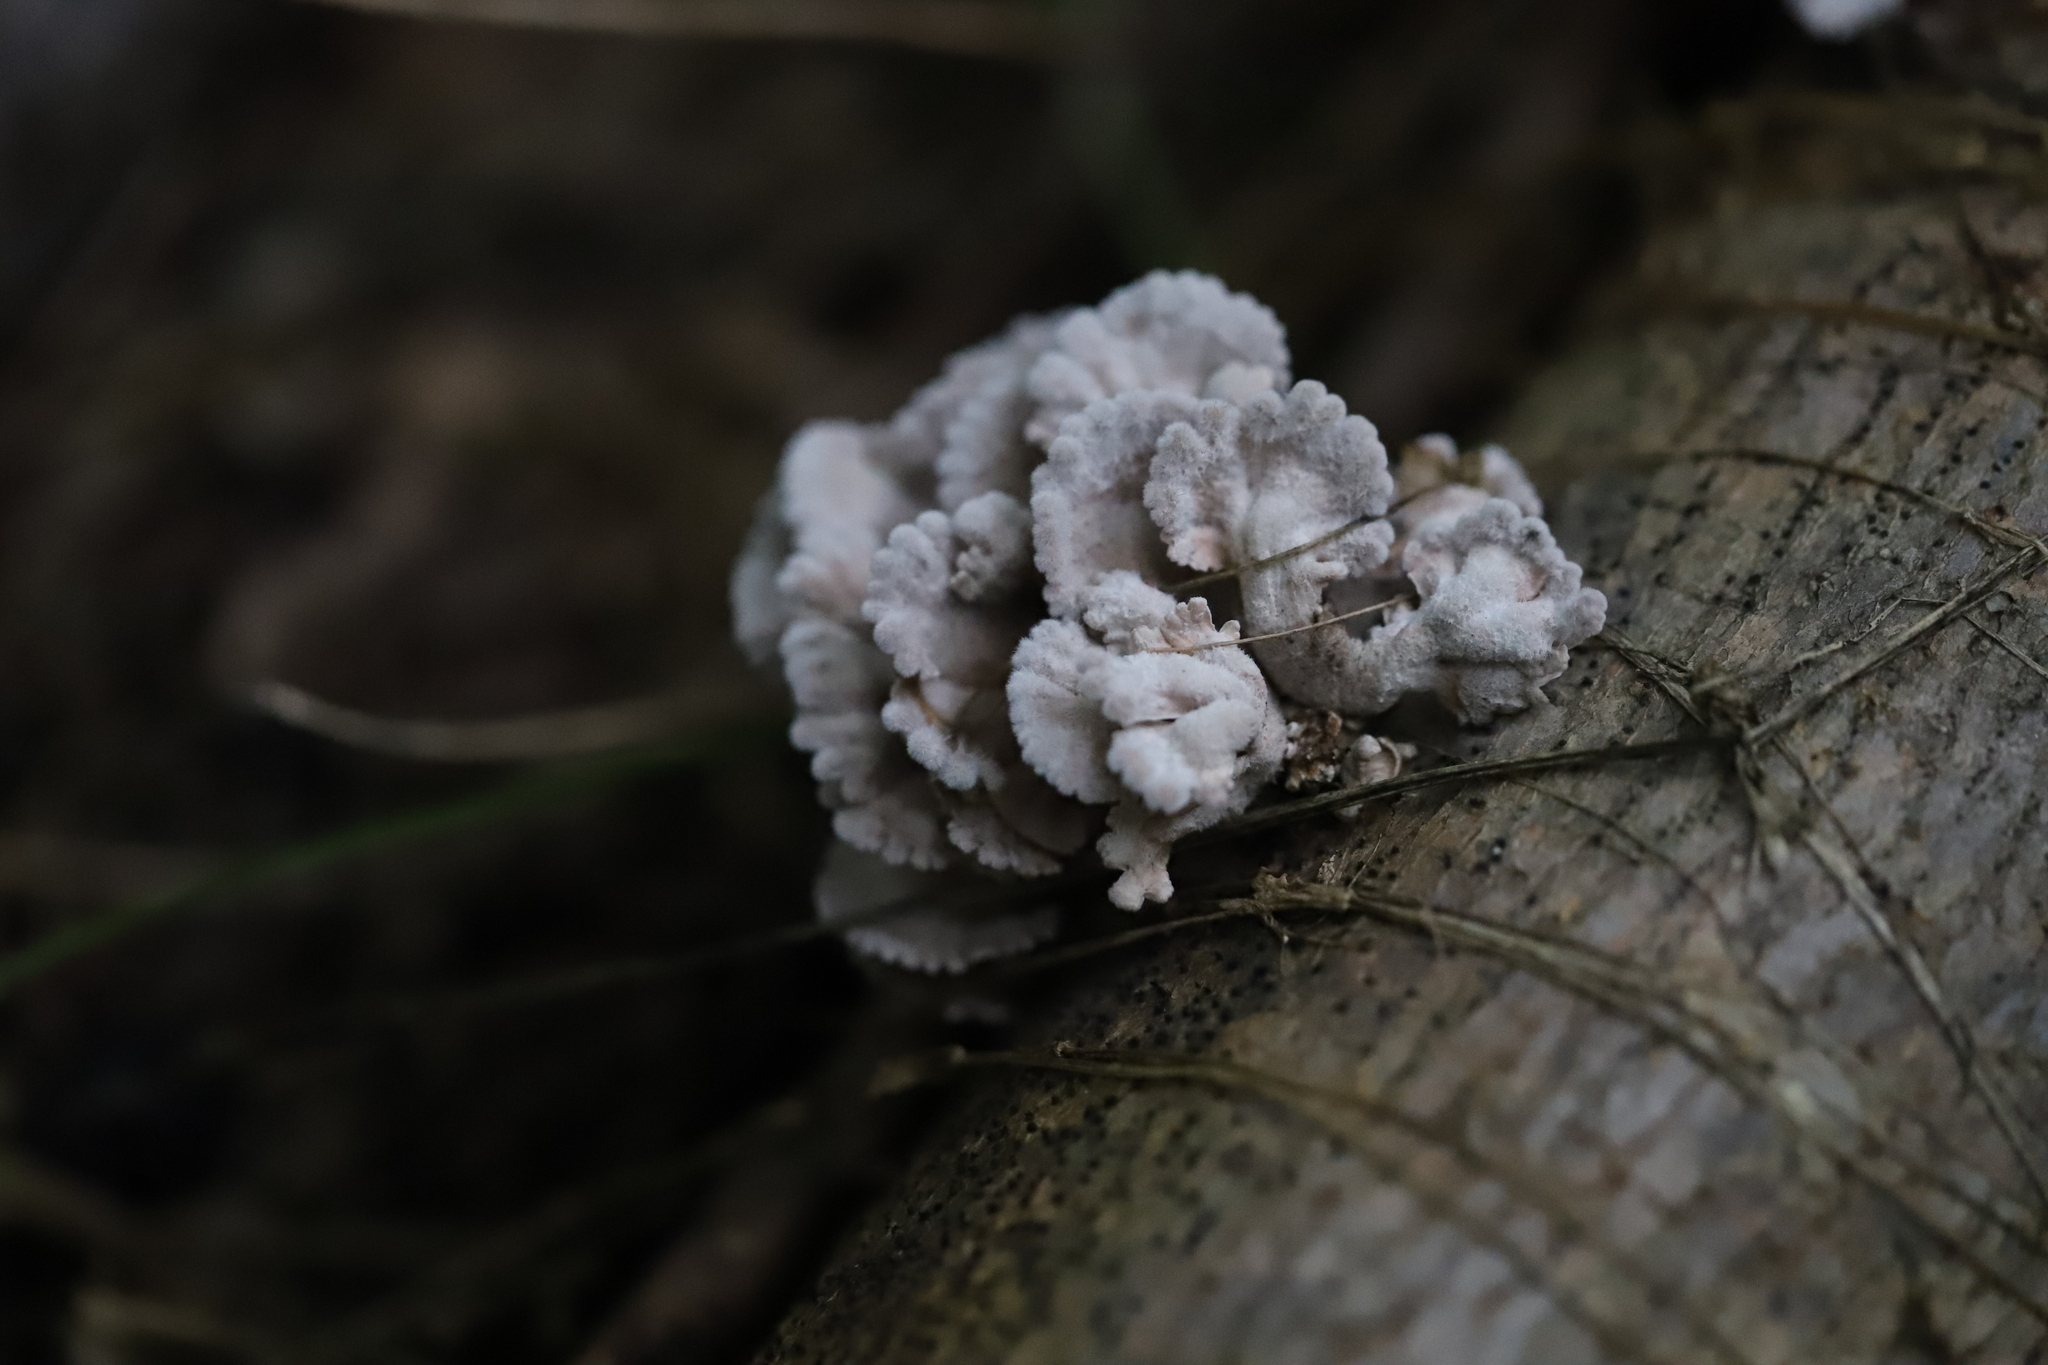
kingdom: Fungi
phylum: Basidiomycota
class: Agaricomycetes
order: Agaricales
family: Schizophyllaceae
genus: Schizophyllum
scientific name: Schizophyllum commune
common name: Common porecrust
